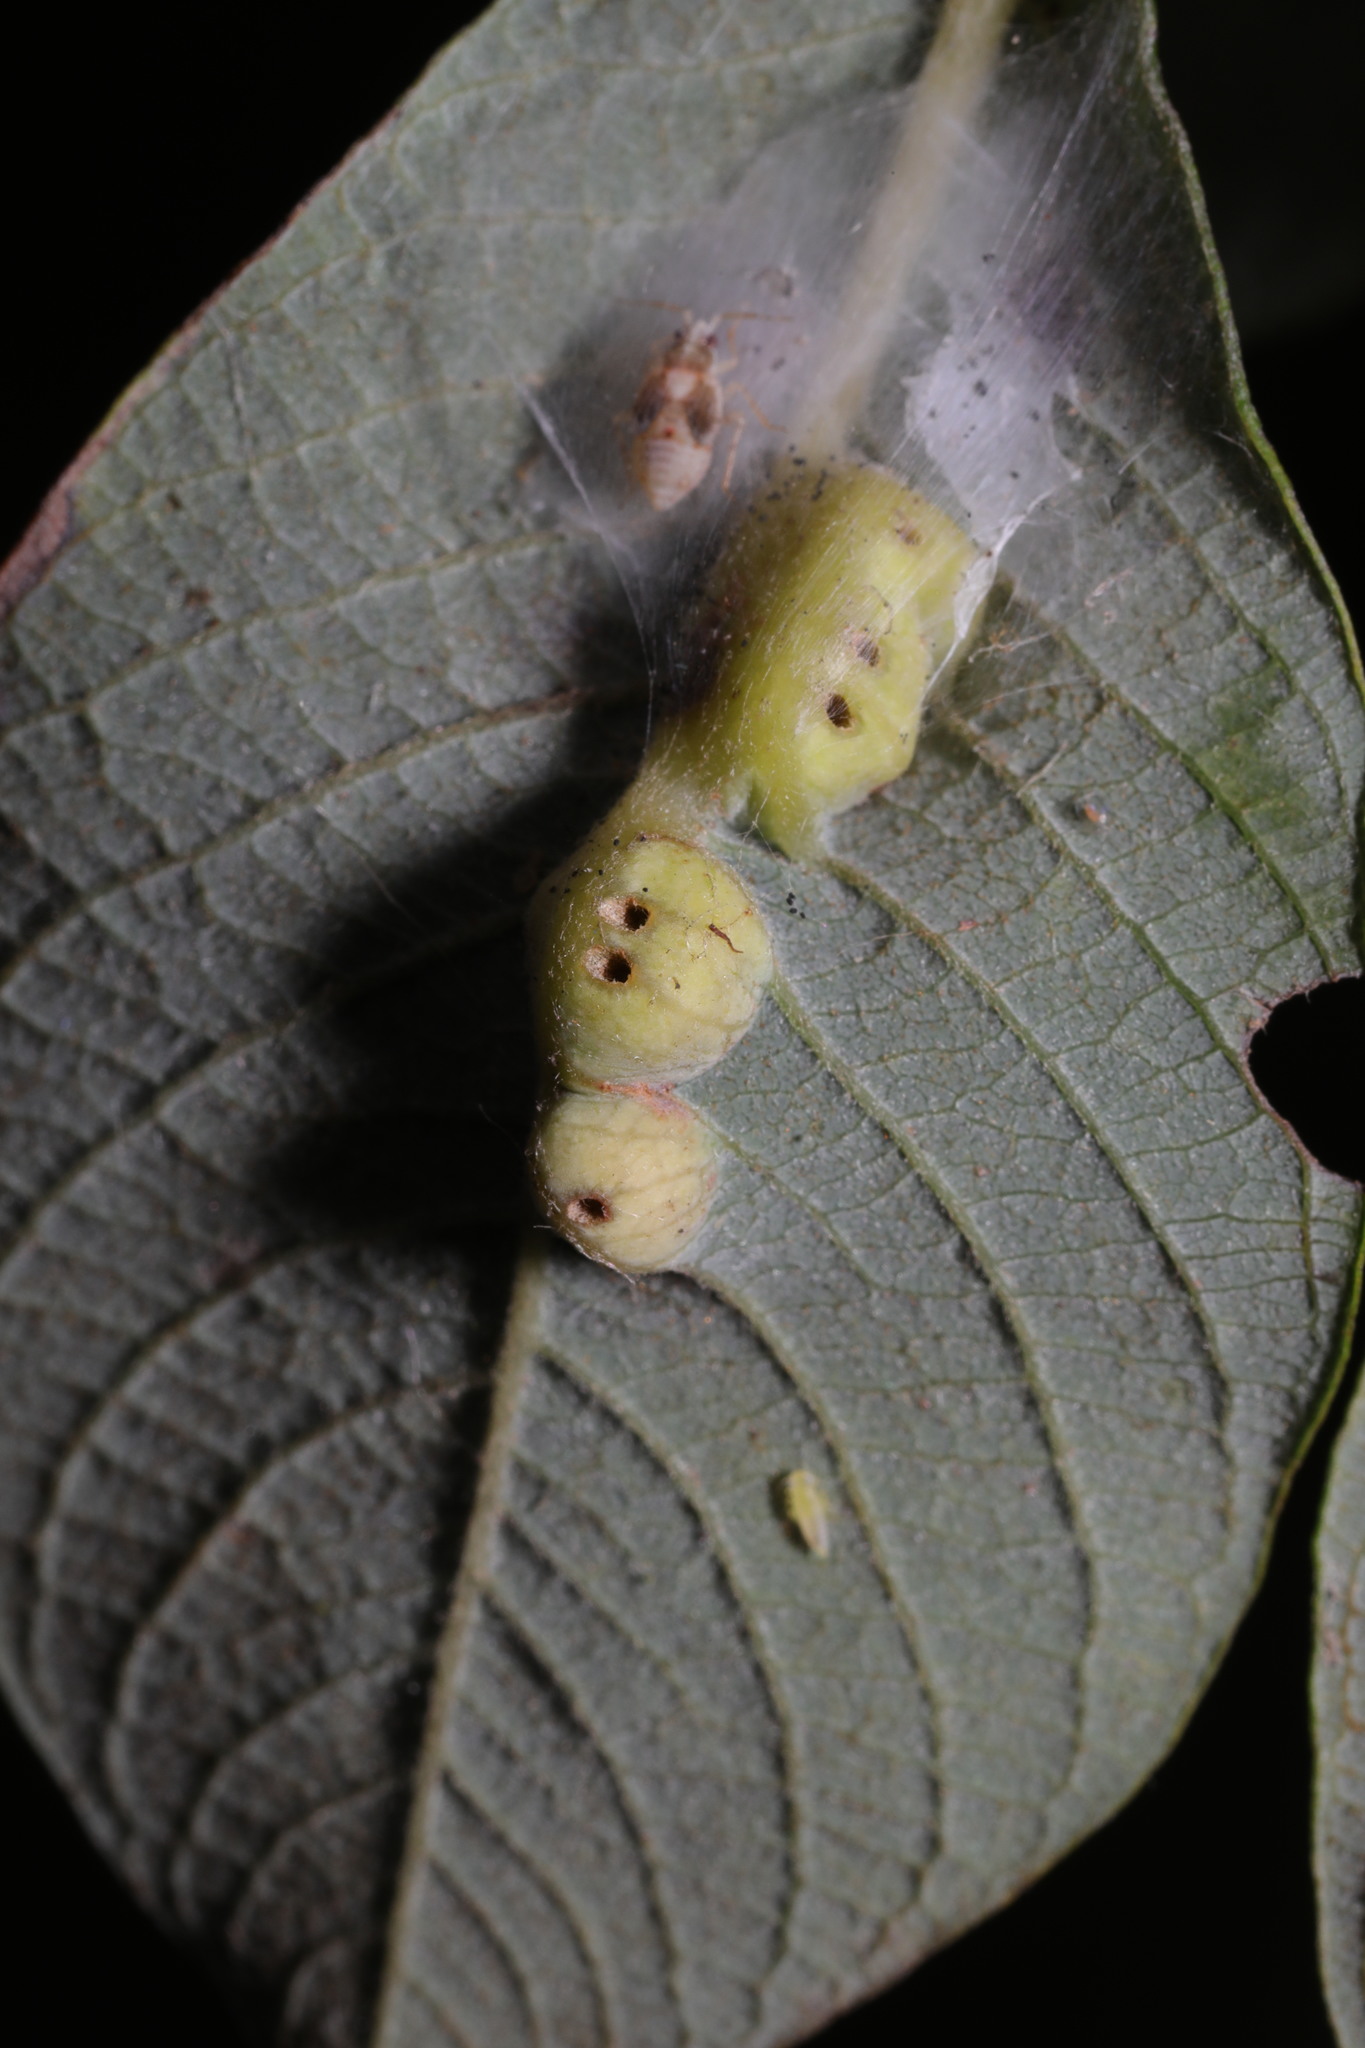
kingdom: Animalia
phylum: Arthropoda
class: Insecta
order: Diptera
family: Cecidomyiidae
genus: Iteomyia
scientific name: Iteomyia major
